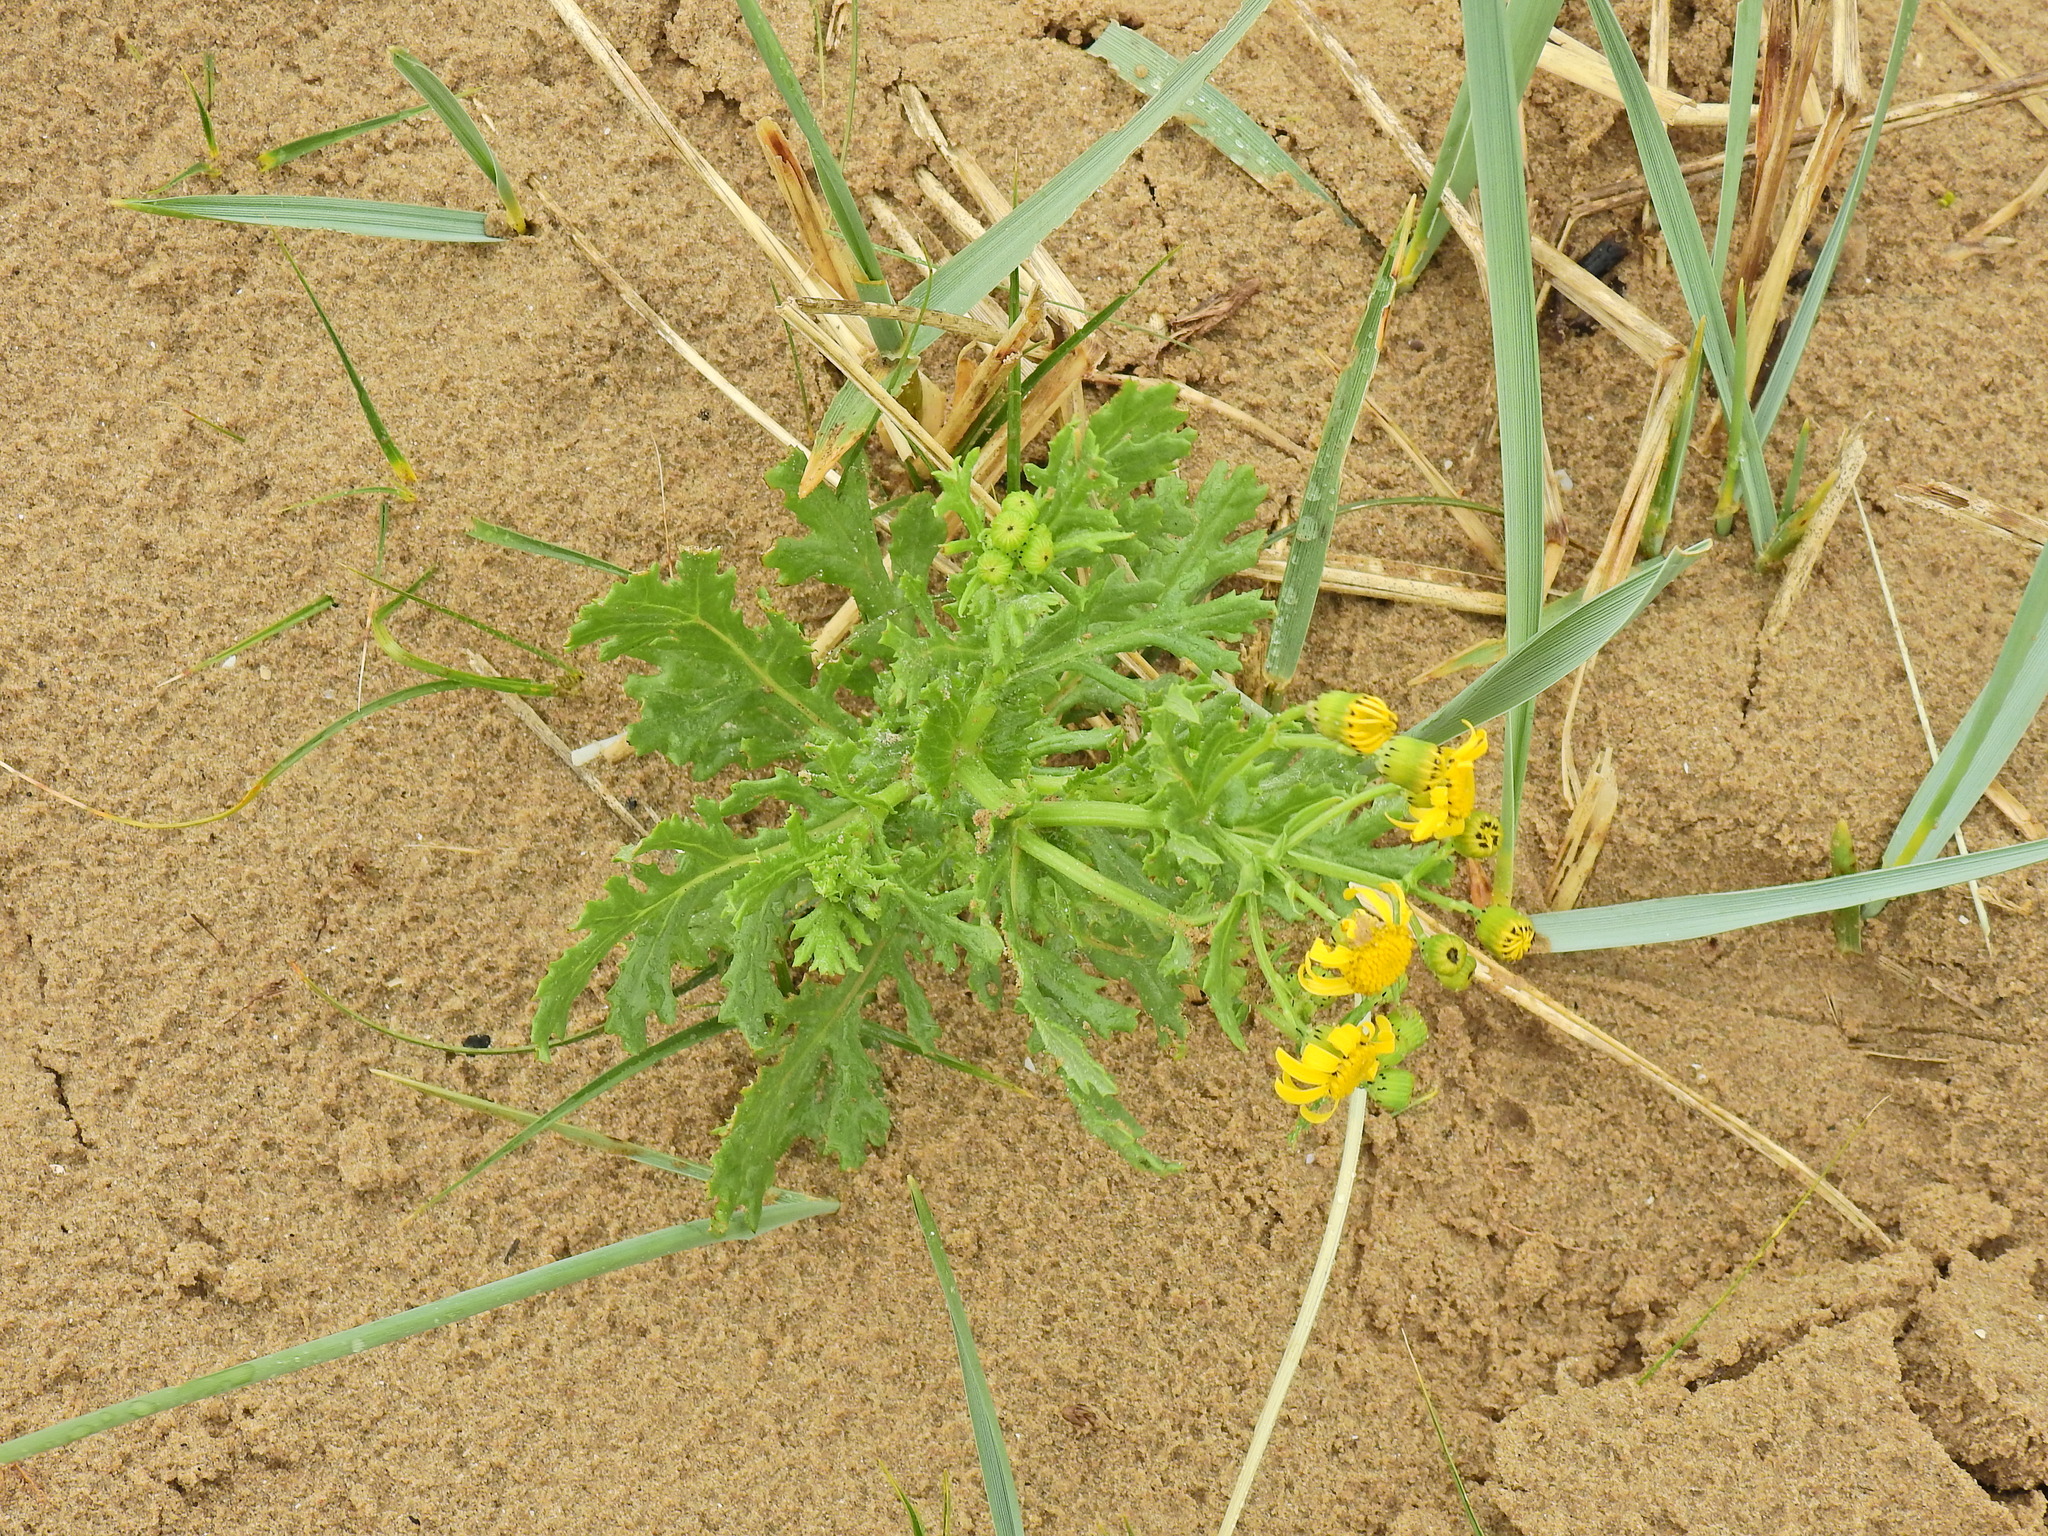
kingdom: Plantae
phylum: Tracheophyta
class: Magnoliopsida
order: Asterales
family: Asteraceae
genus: Senecio
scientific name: Senecio squalidus
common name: Oxford ragwort
